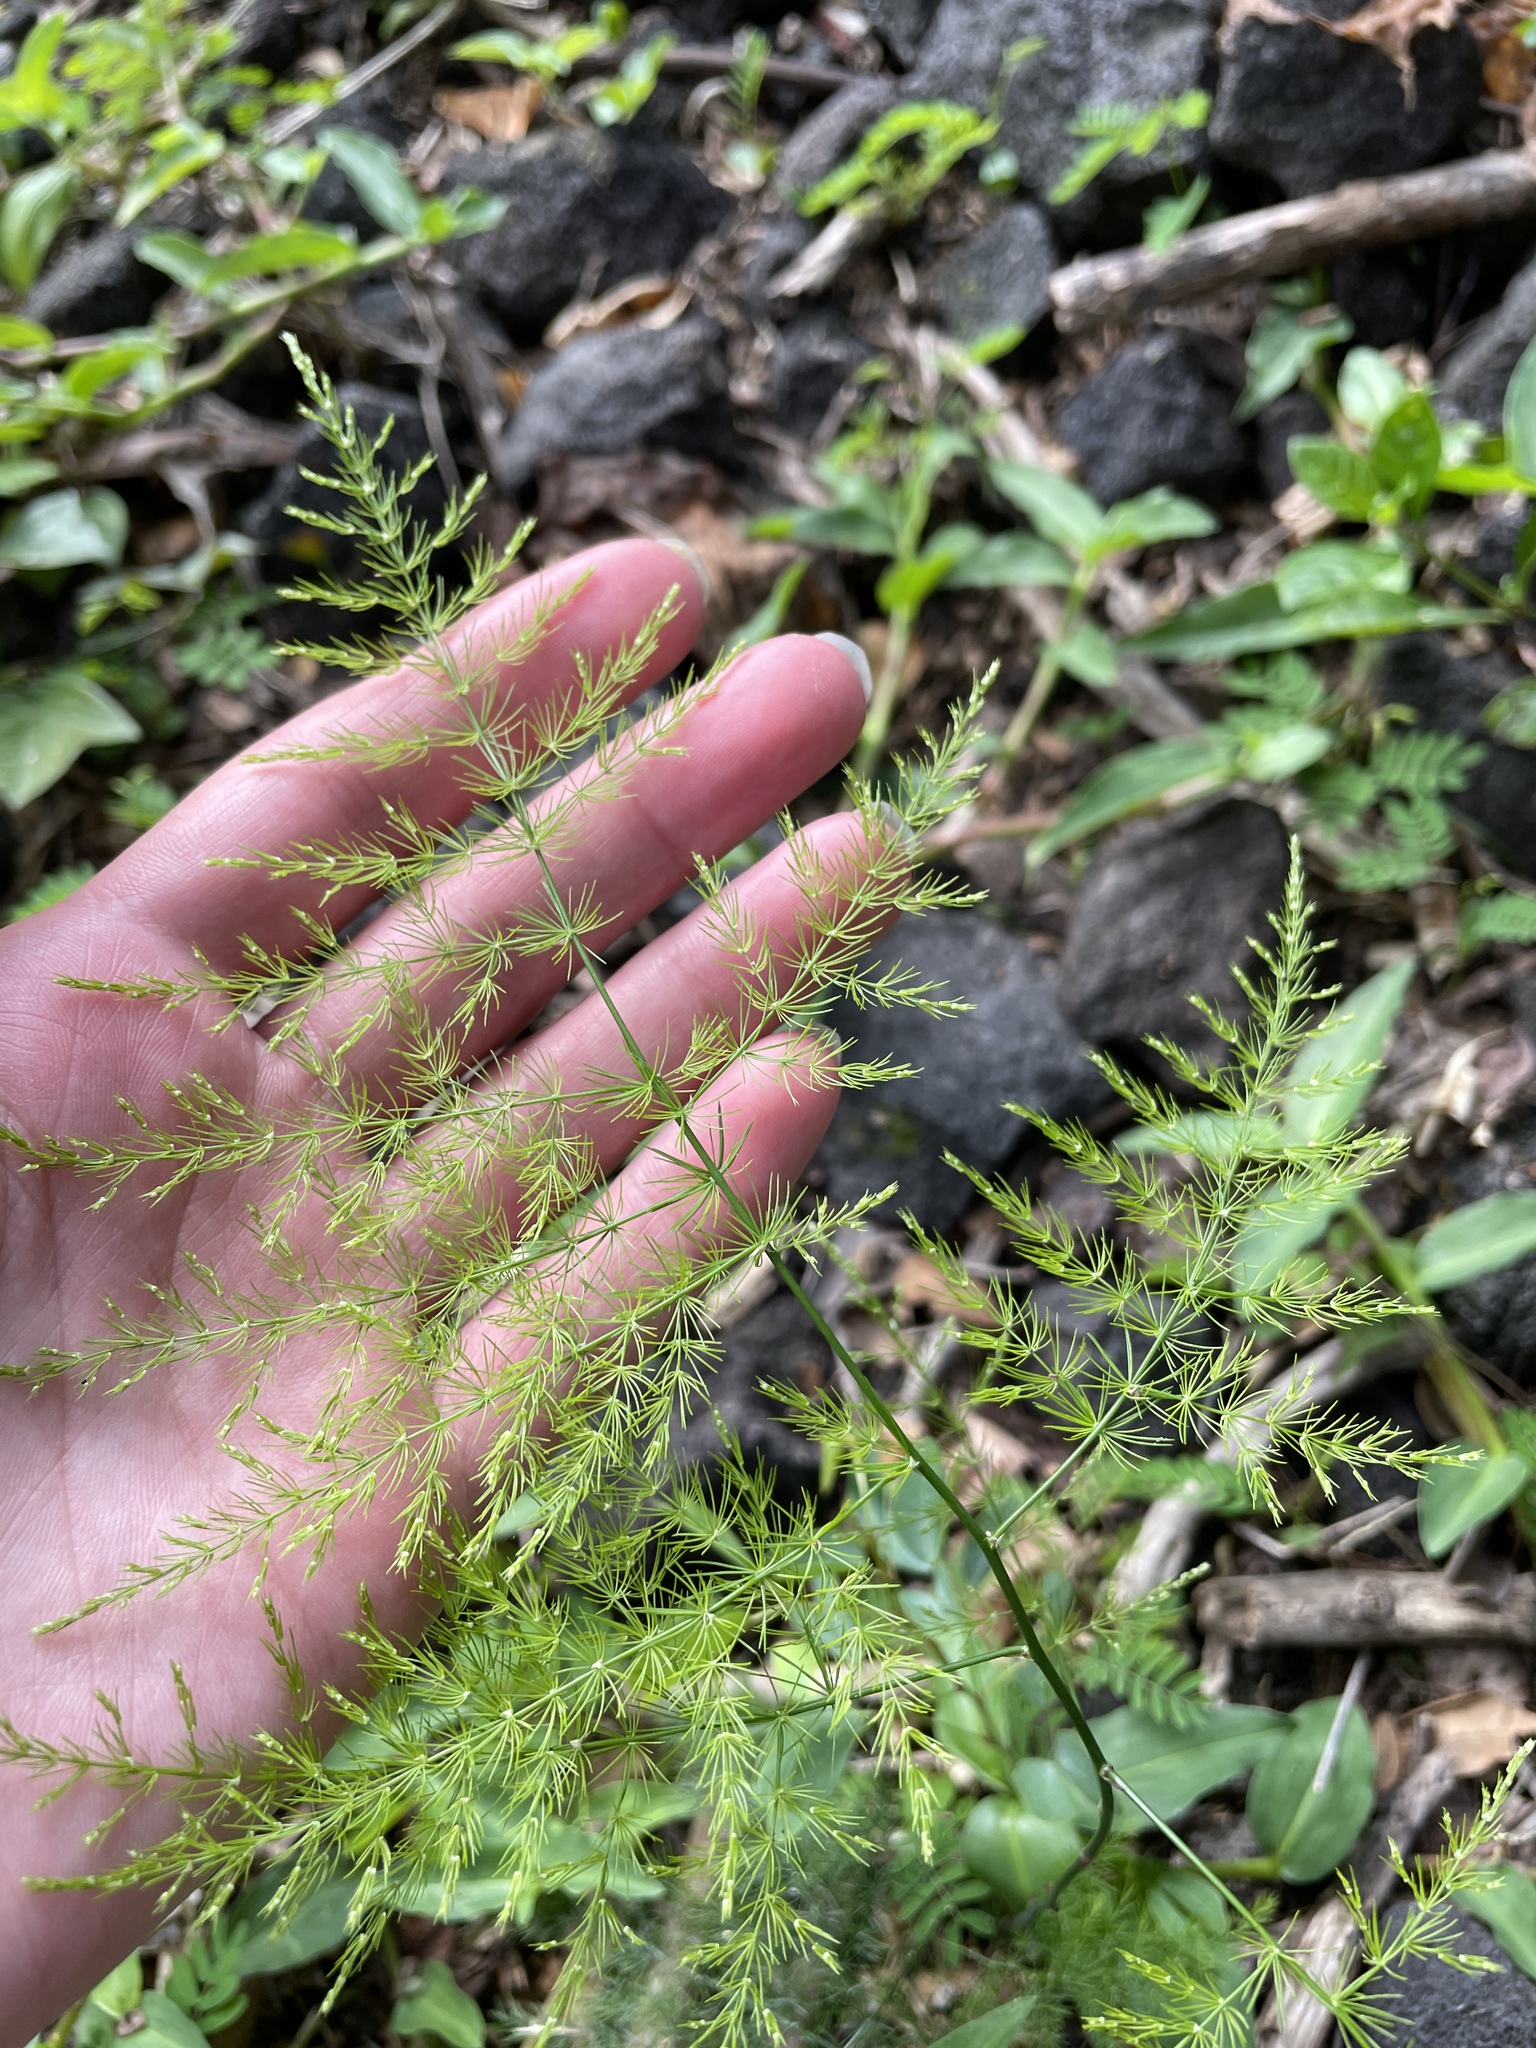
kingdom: Plantae
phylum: Tracheophyta
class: Liliopsida
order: Asparagales
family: Asparagaceae
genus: Asparagus
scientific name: Asparagus setaceus
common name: Common asparagus fern
